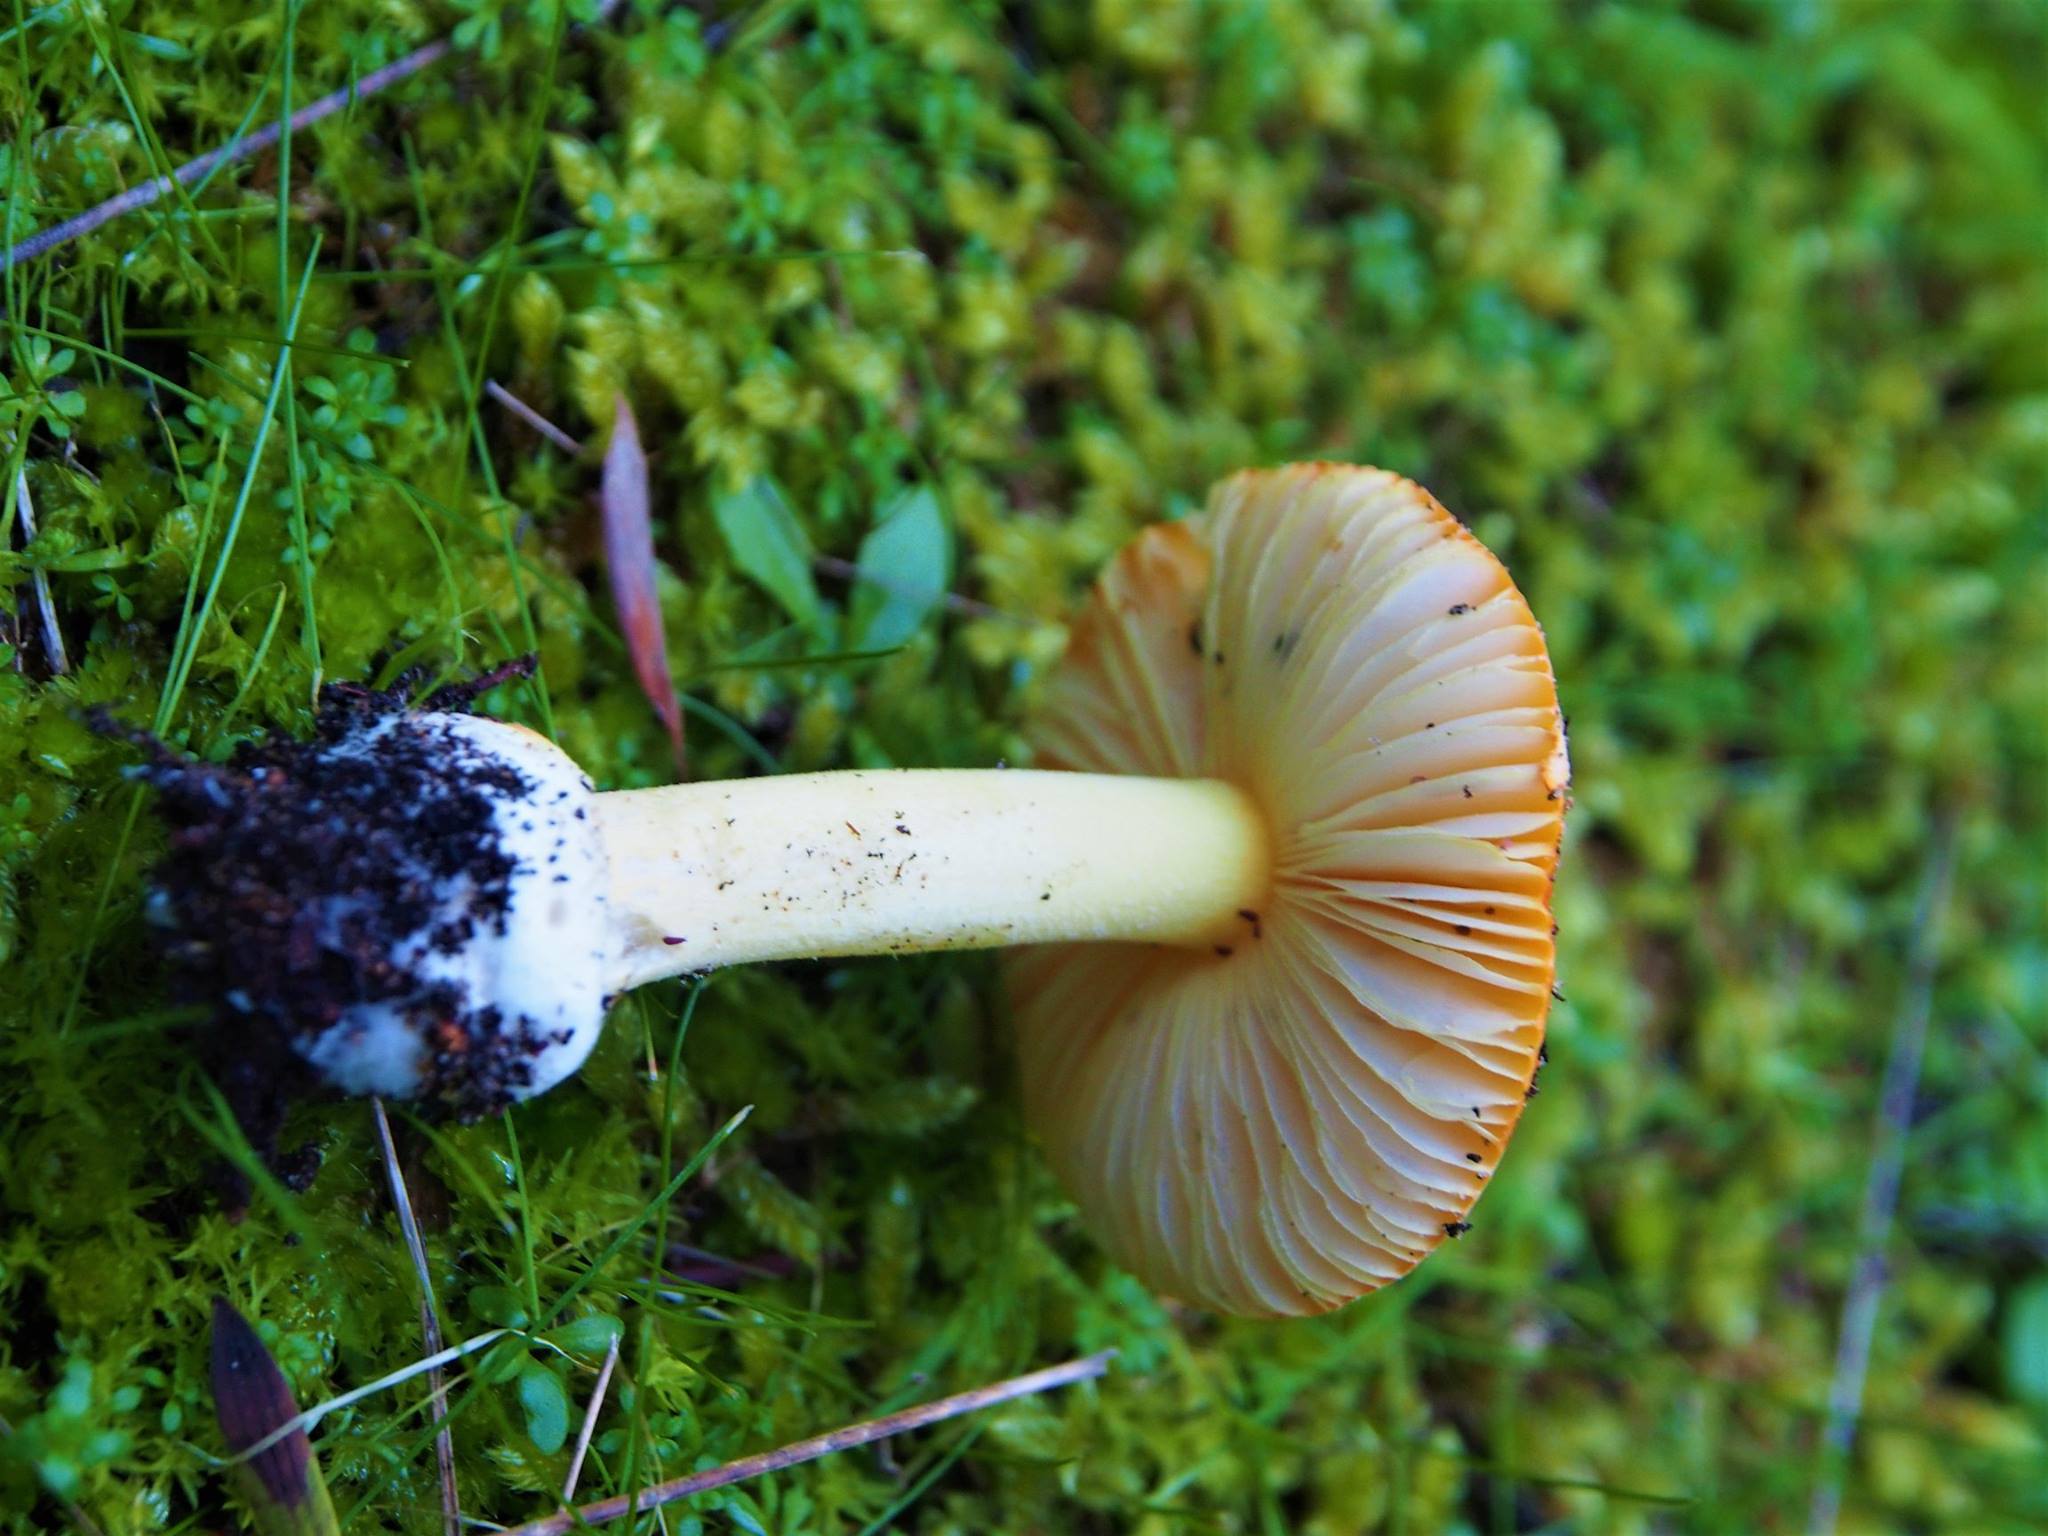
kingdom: Fungi
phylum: Basidiomycota
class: Agaricomycetes
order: Agaricales
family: Amanitaceae
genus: Amanita
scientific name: Amanita xanthocephala
